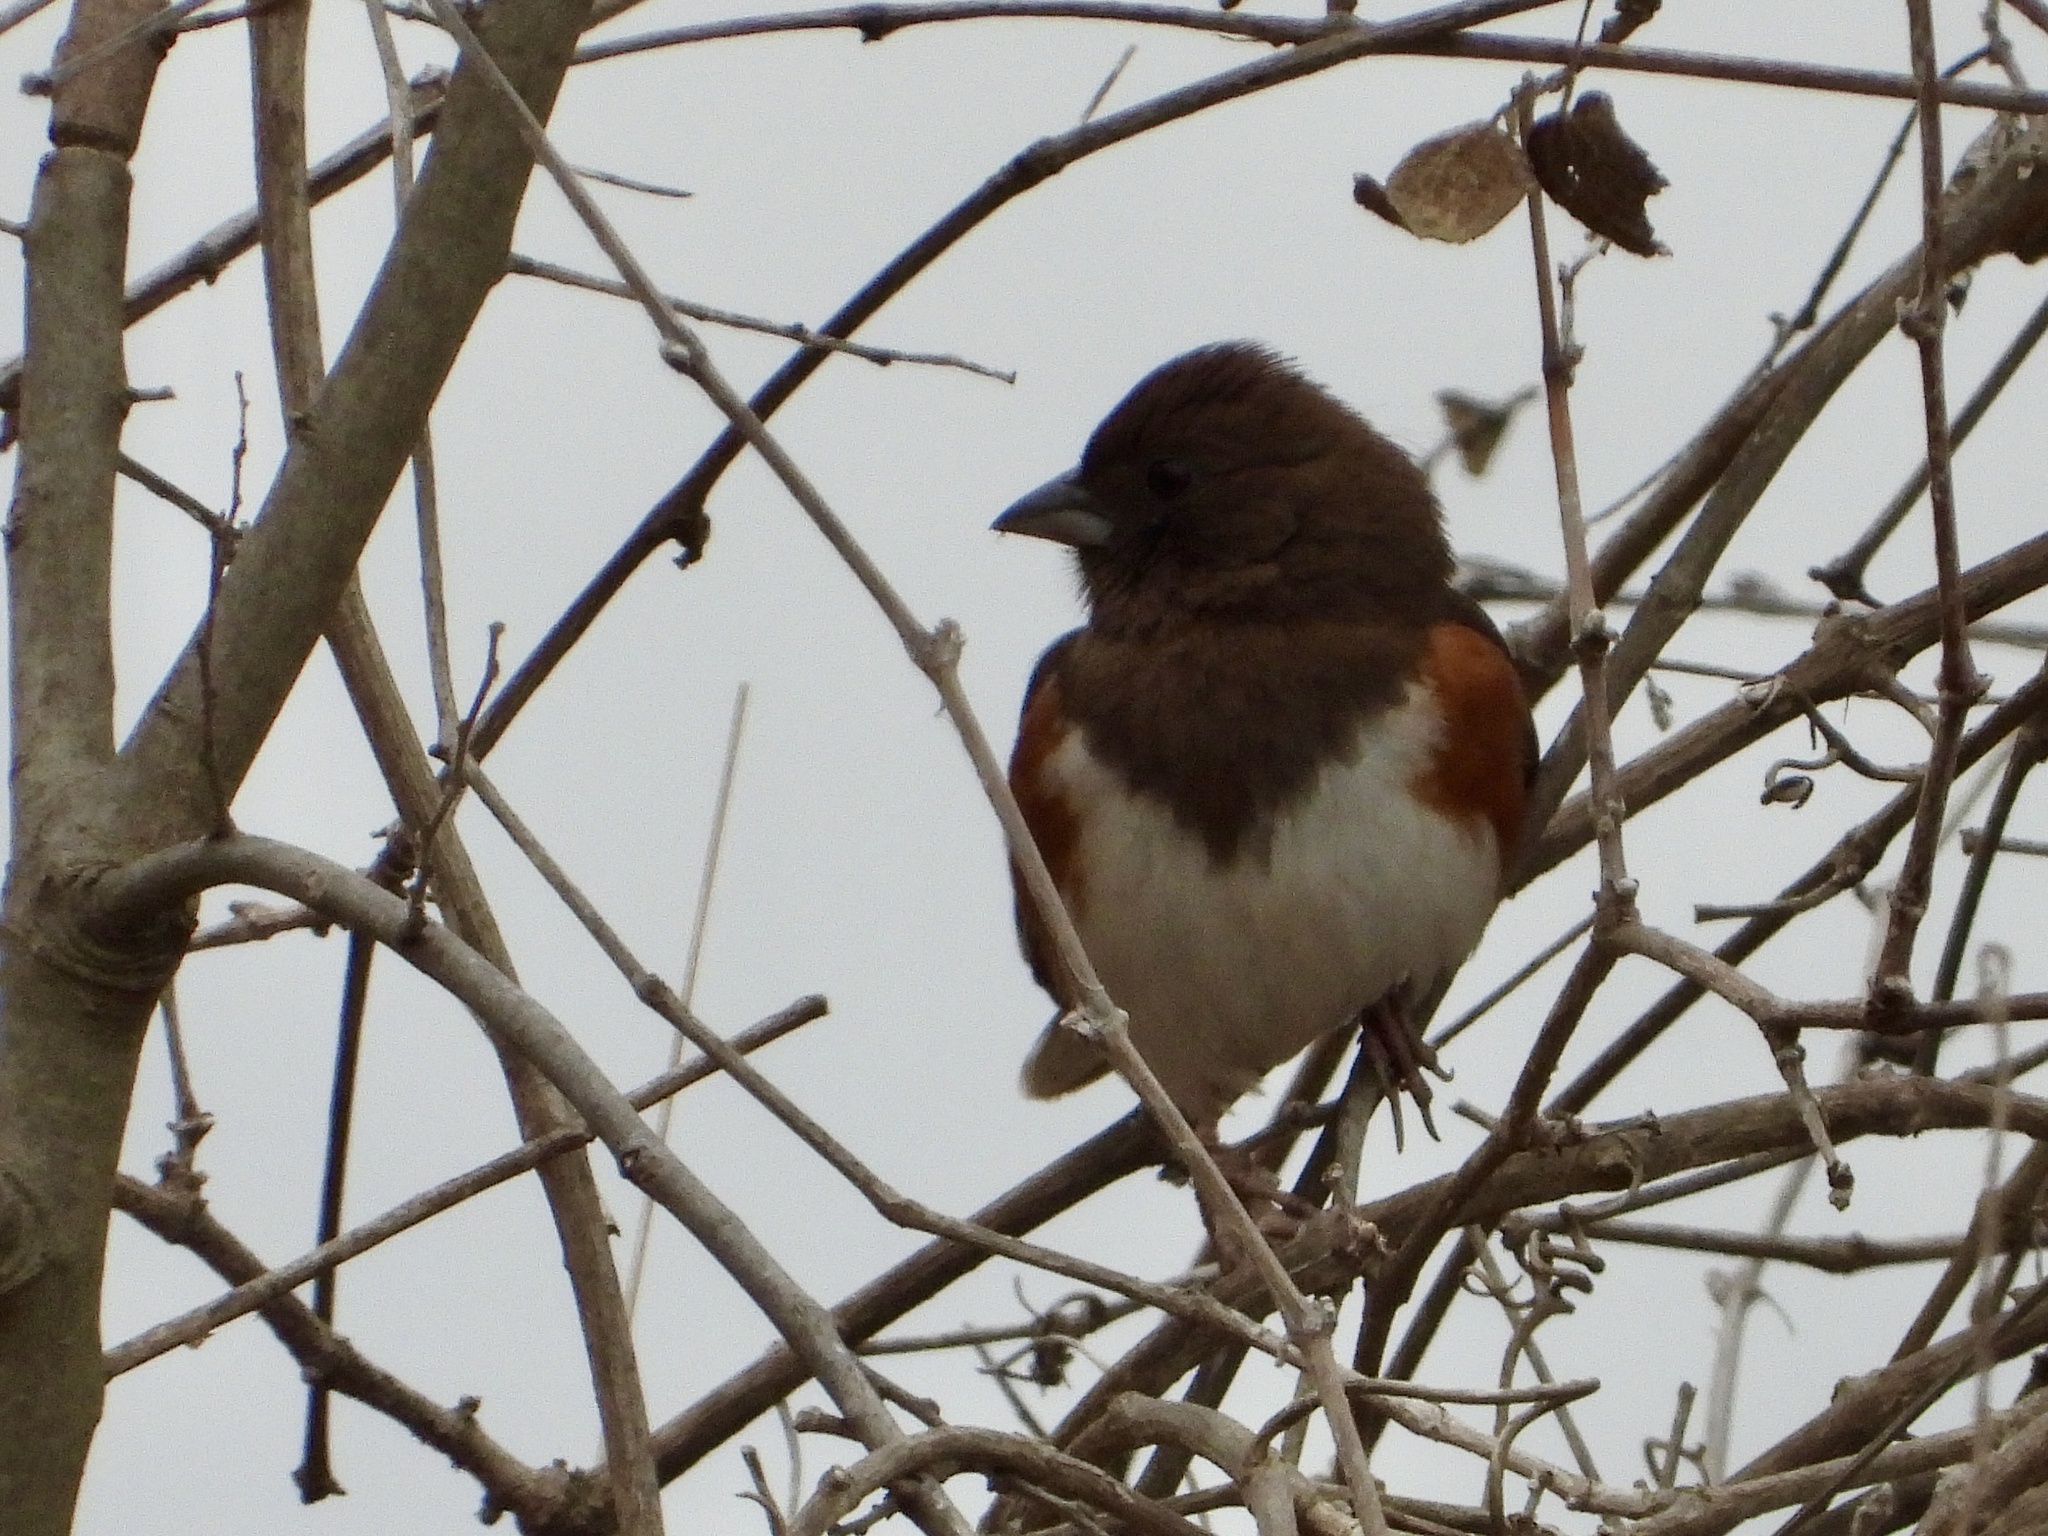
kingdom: Animalia
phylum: Chordata
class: Aves
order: Passeriformes
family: Passerellidae
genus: Pipilo
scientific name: Pipilo erythrophthalmus
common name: Eastern towhee
